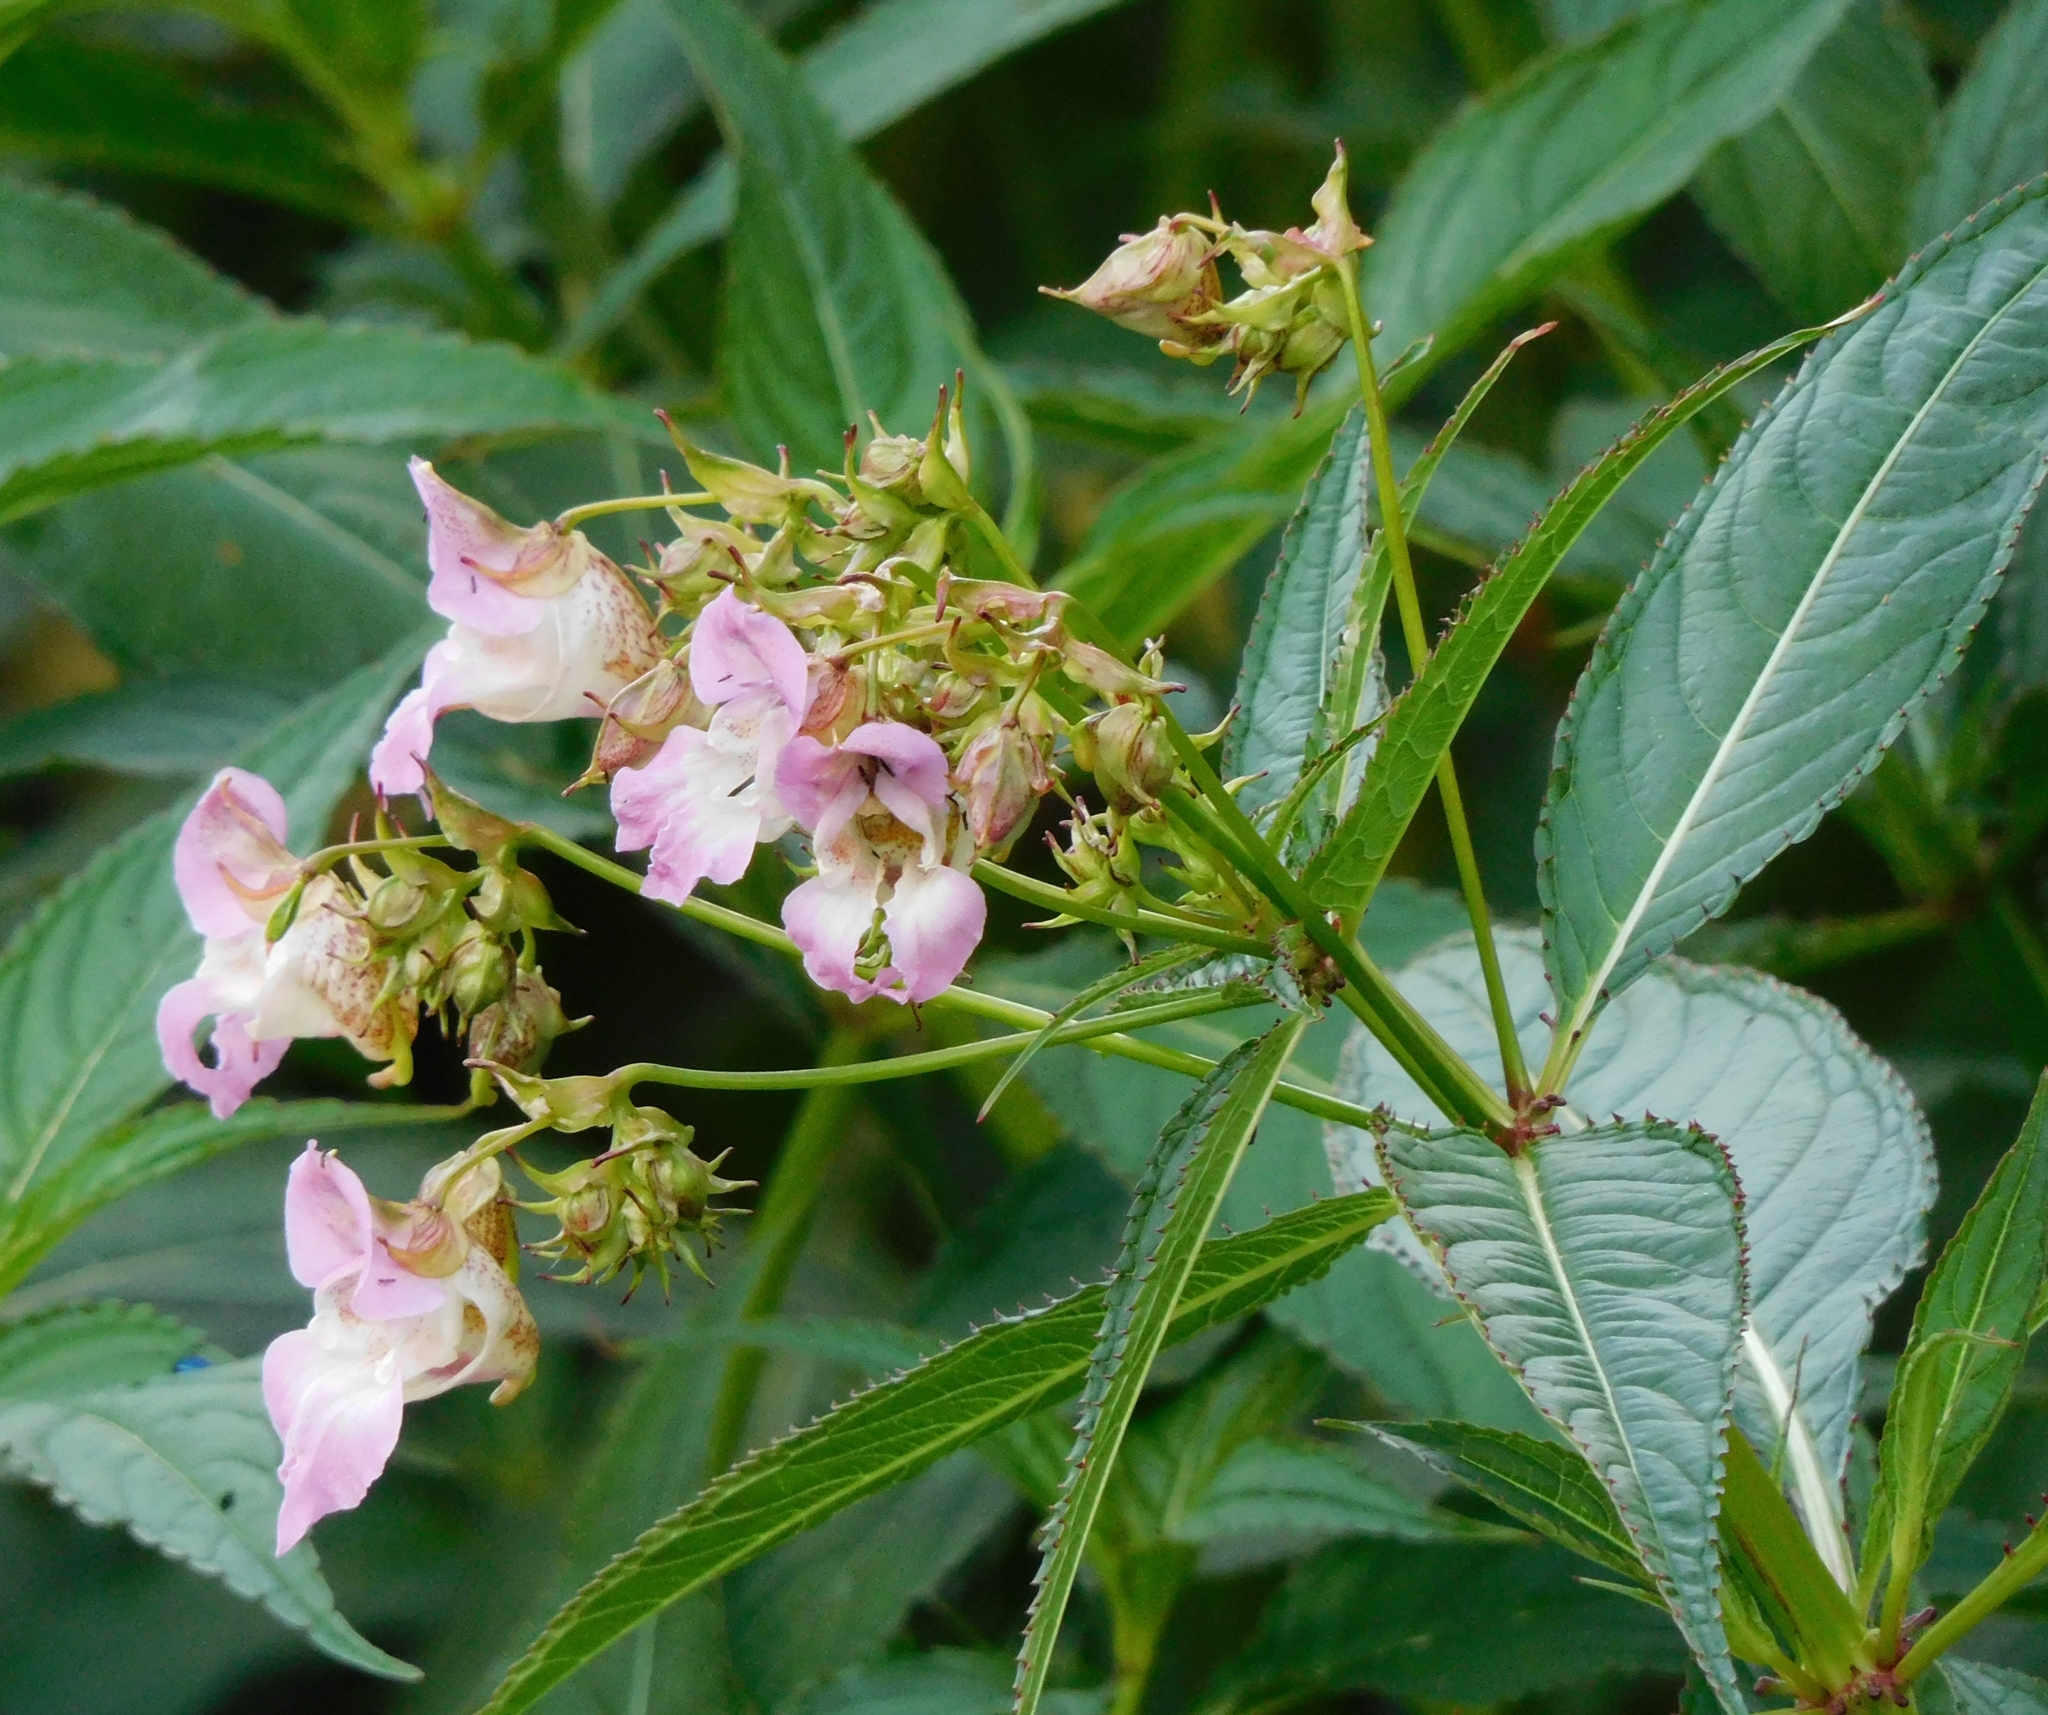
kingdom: Plantae
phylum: Tracheophyta
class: Magnoliopsida
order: Ericales
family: Balsaminaceae
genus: Impatiens
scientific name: Impatiens glandulifera
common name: Himalayan balsam
